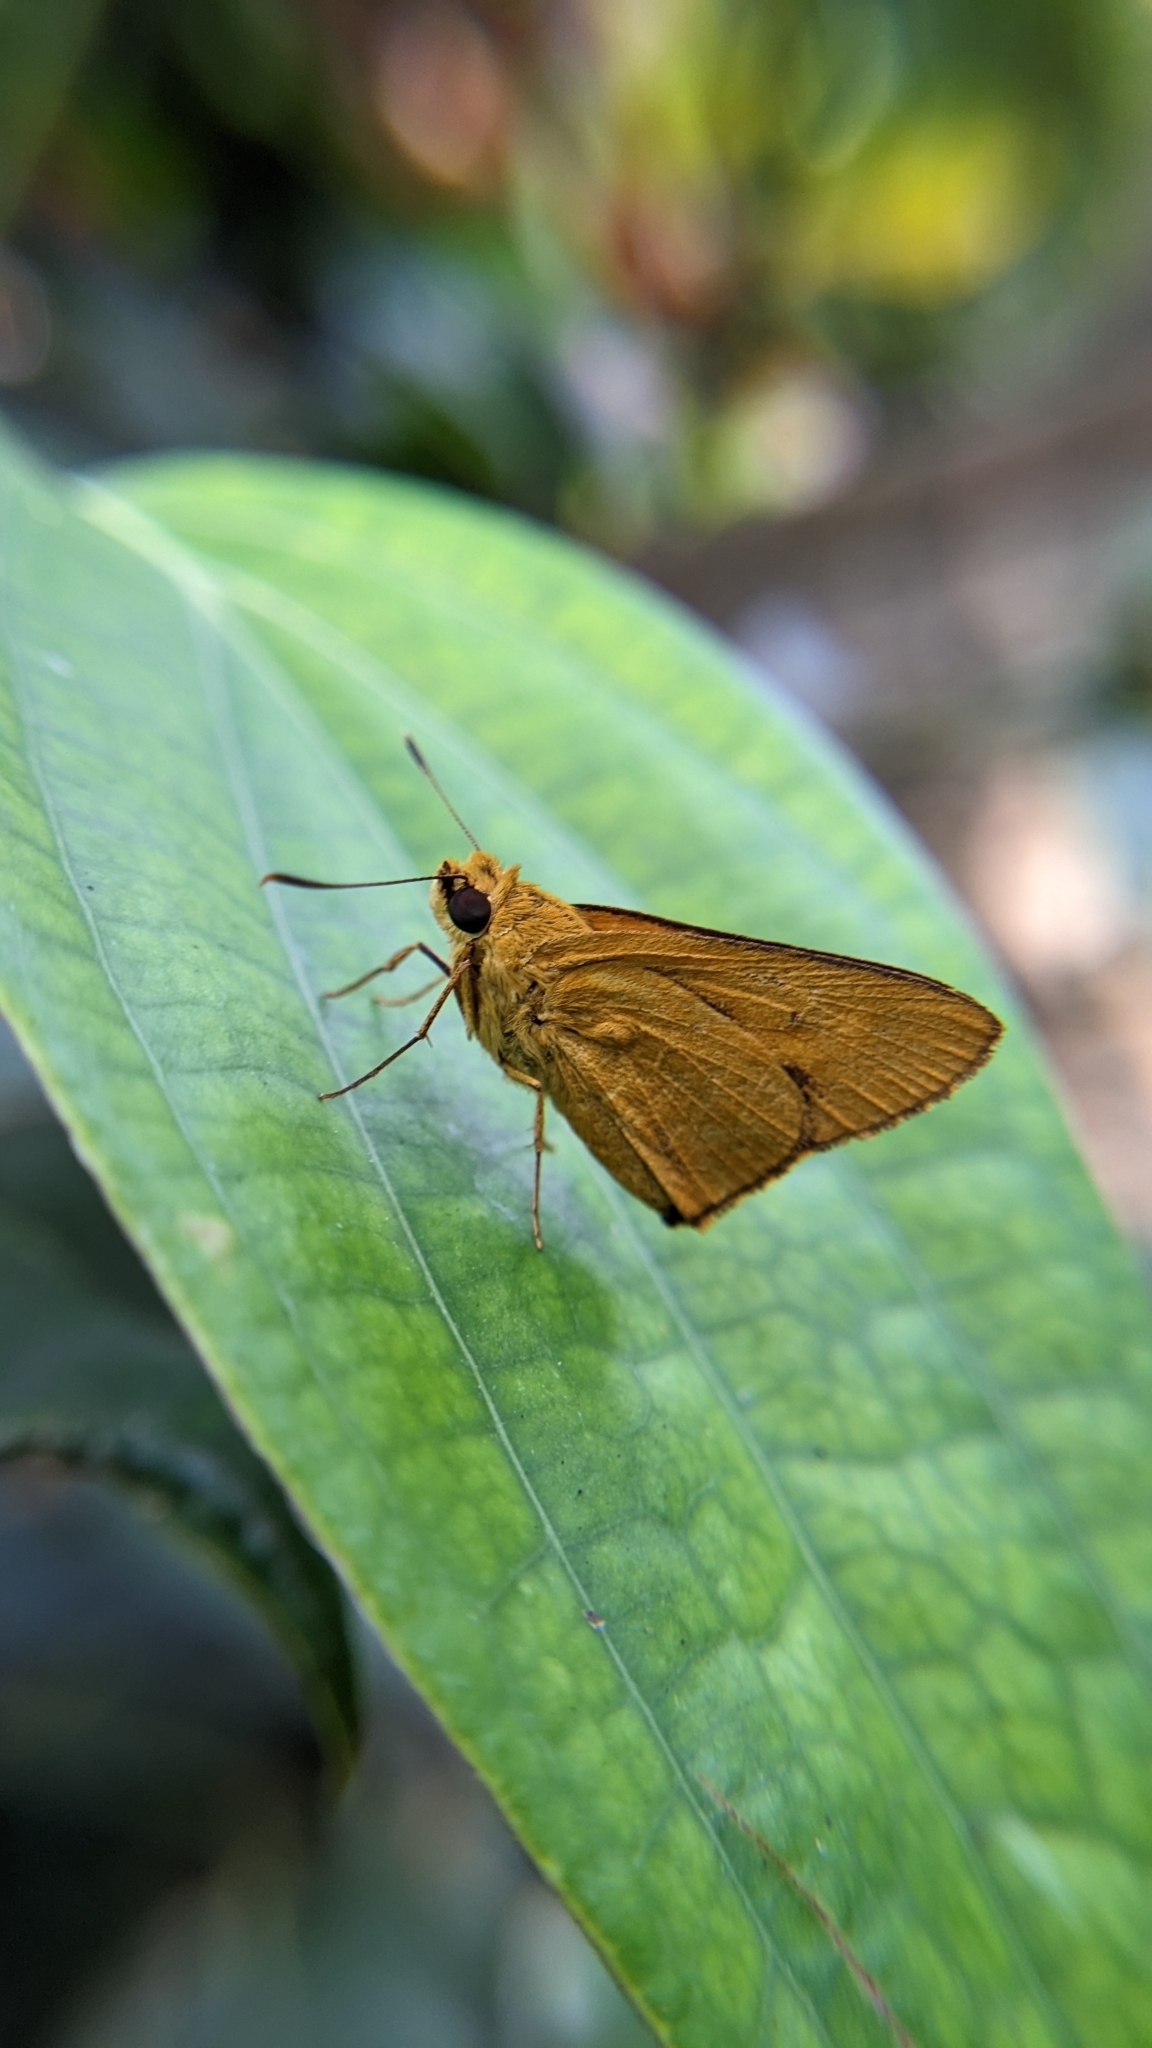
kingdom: Animalia
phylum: Arthropoda
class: Insecta
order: Lepidoptera
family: Hesperiidae
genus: Cupitha
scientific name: Cupitha purreea
